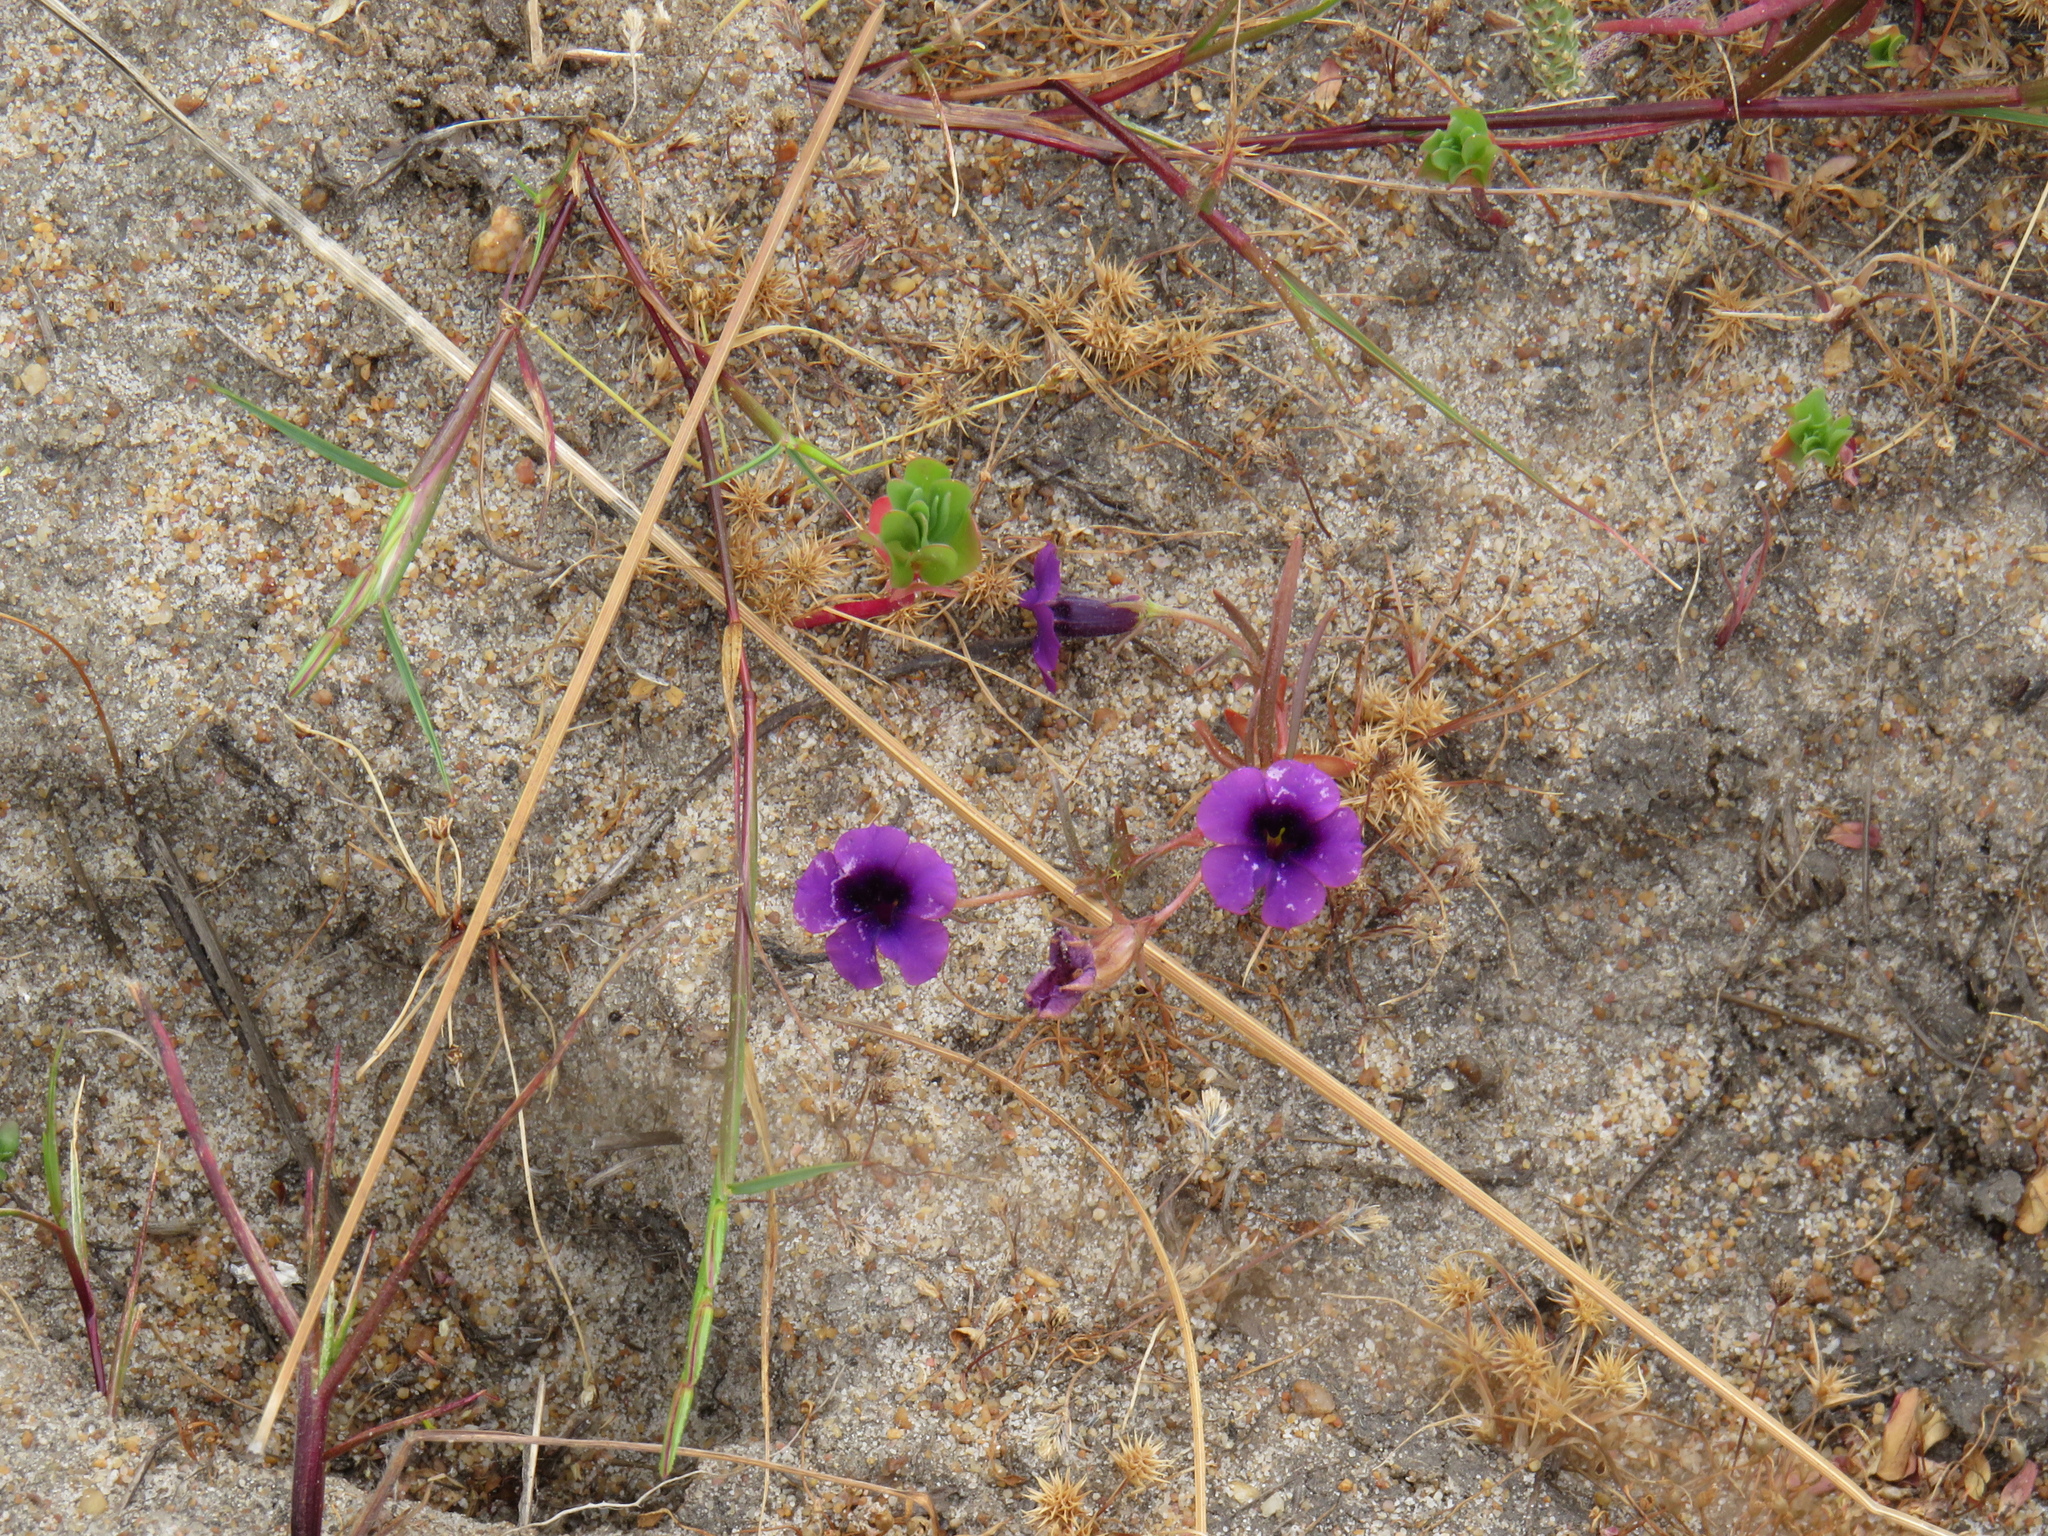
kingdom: Plantae
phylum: Tracheophyta
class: Magnoliopsida
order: Asterales
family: Campanulaceae
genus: Monopsis
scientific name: Monopsis debilis
